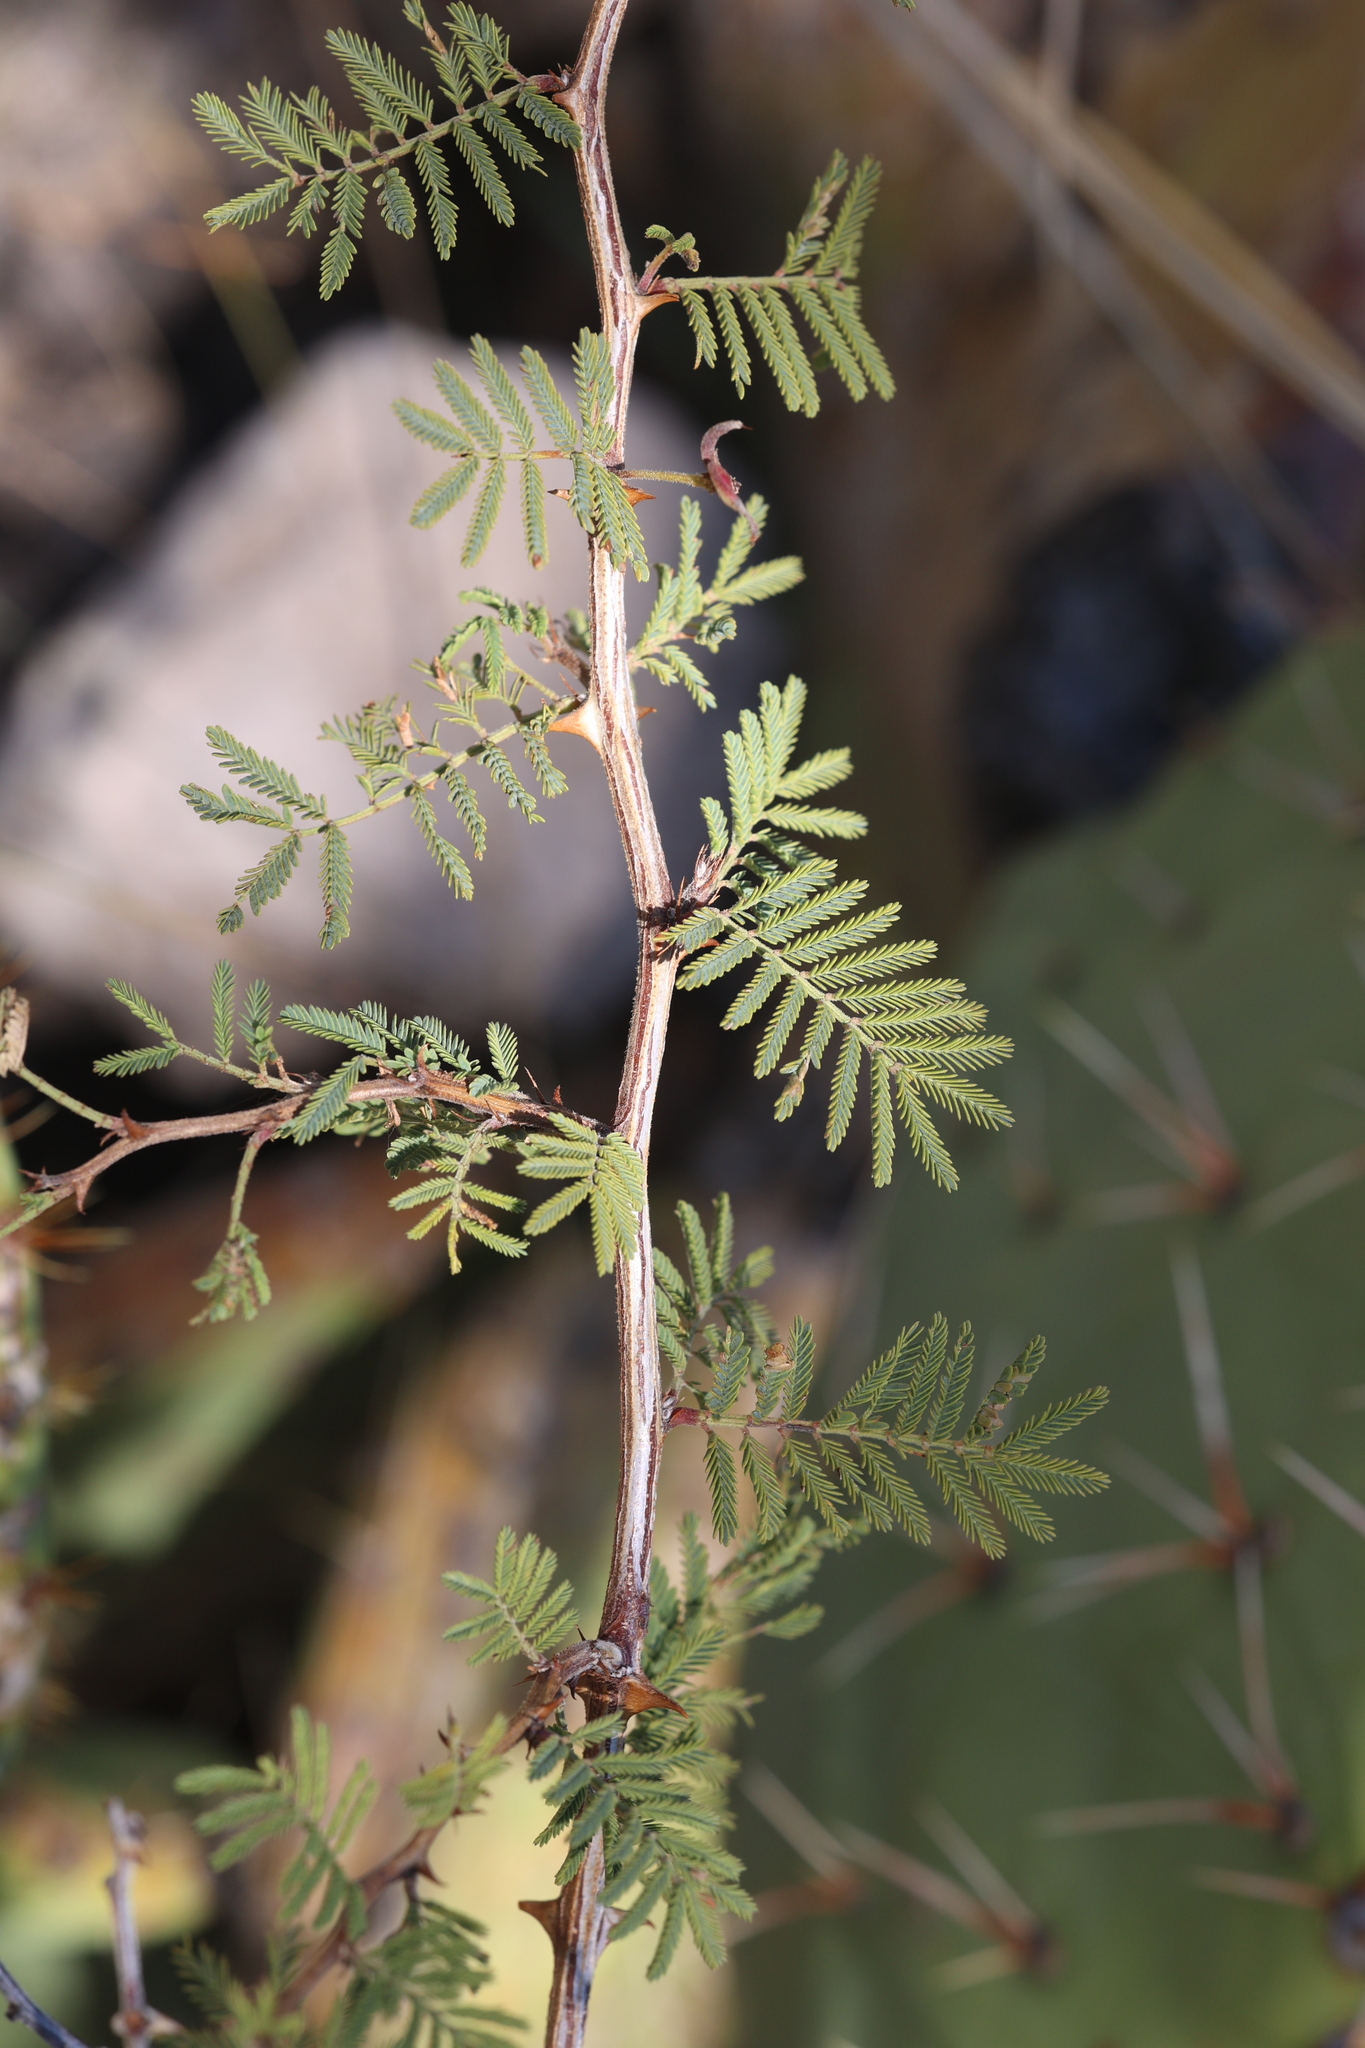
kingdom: Plantae
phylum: Tracheophyta
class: Magnoliopsida
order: Fabales
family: Fabaceae
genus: Mimosa
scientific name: Mimosa aculeaticarpa
